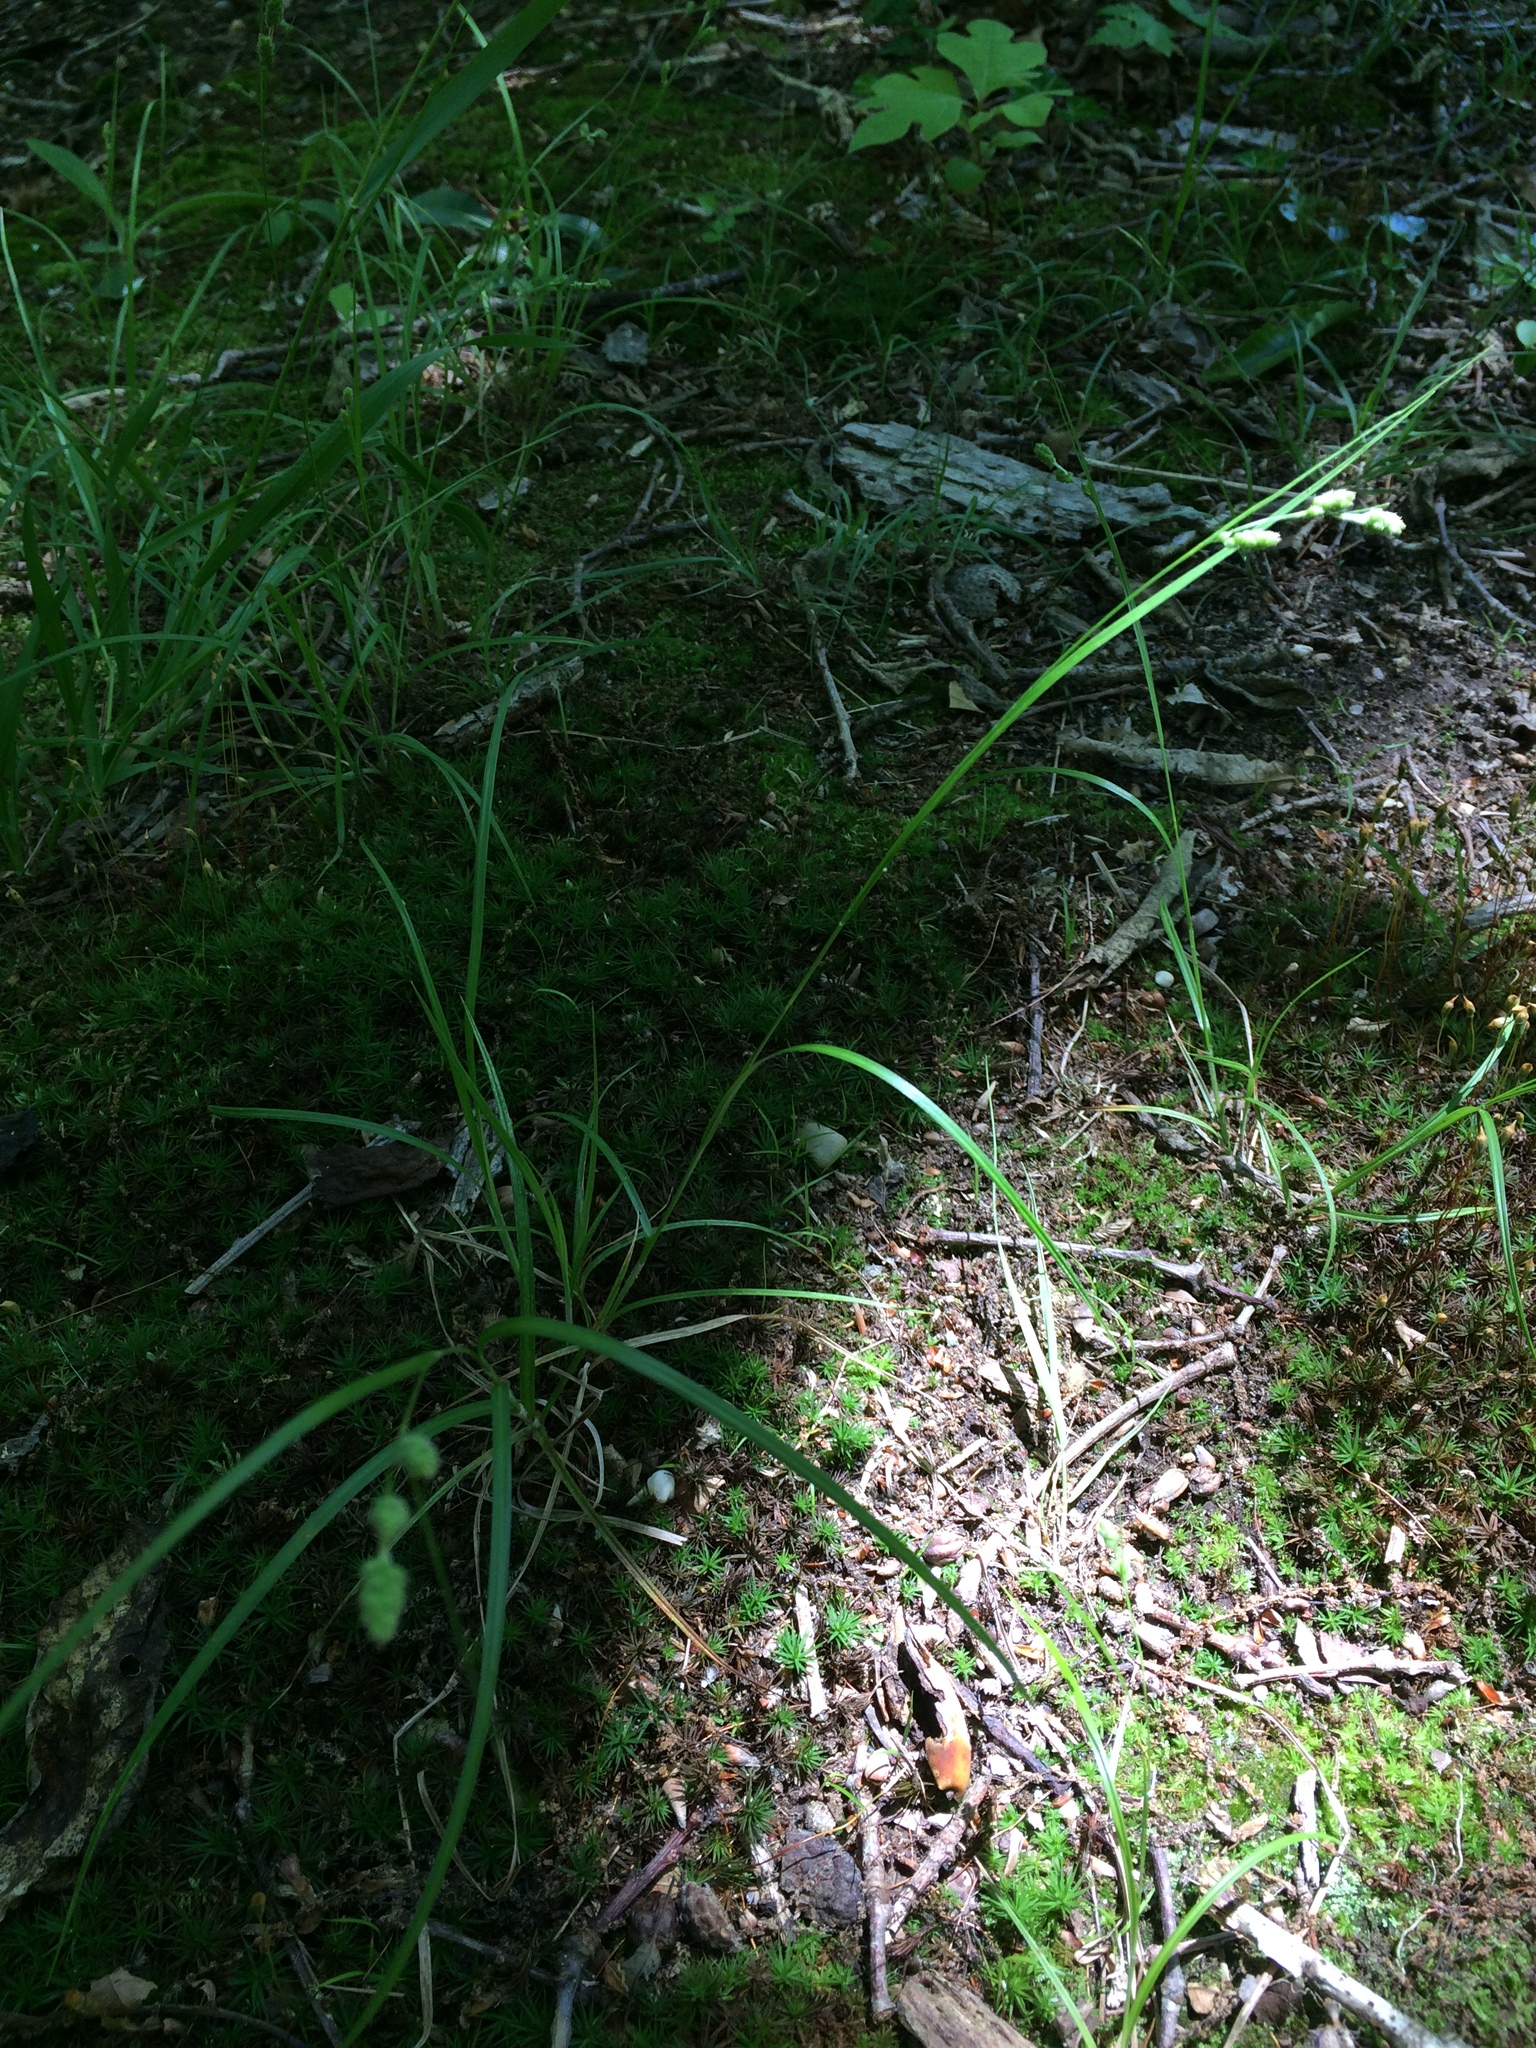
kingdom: Plantae
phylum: Tracheophyta
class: Liliopsida
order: Poales
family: Cyperaceae
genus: Carex
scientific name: Carex swanii
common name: Downy green sedge
